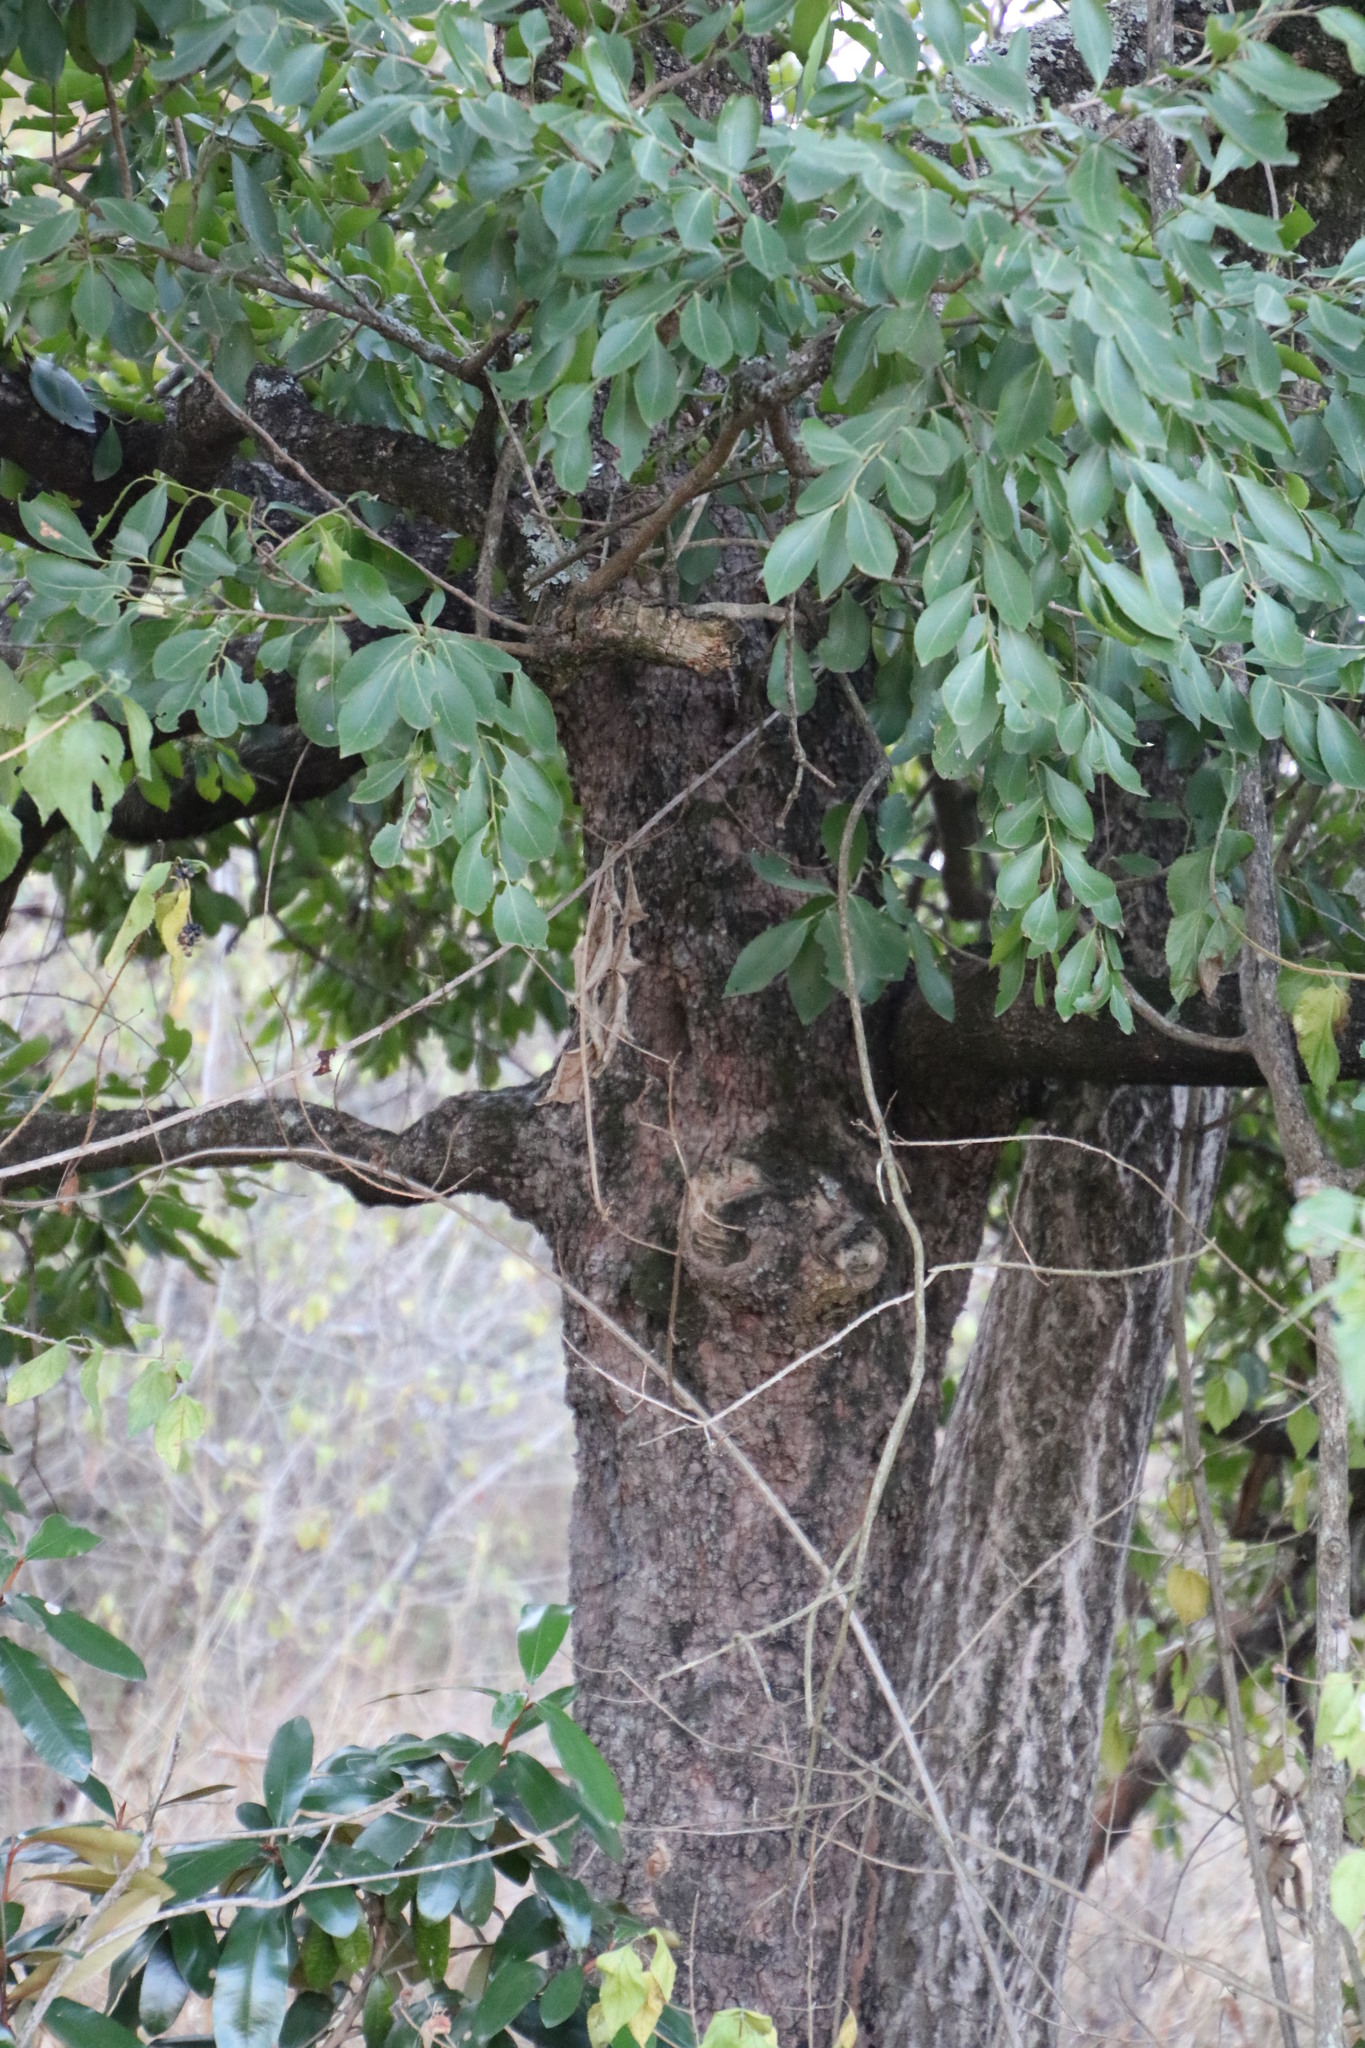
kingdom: Plantae
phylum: Tracheophyta
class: Magnoliopsida
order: Celastrales
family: Celastraceae
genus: Gymnosporia
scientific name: Gymnosporia undata
